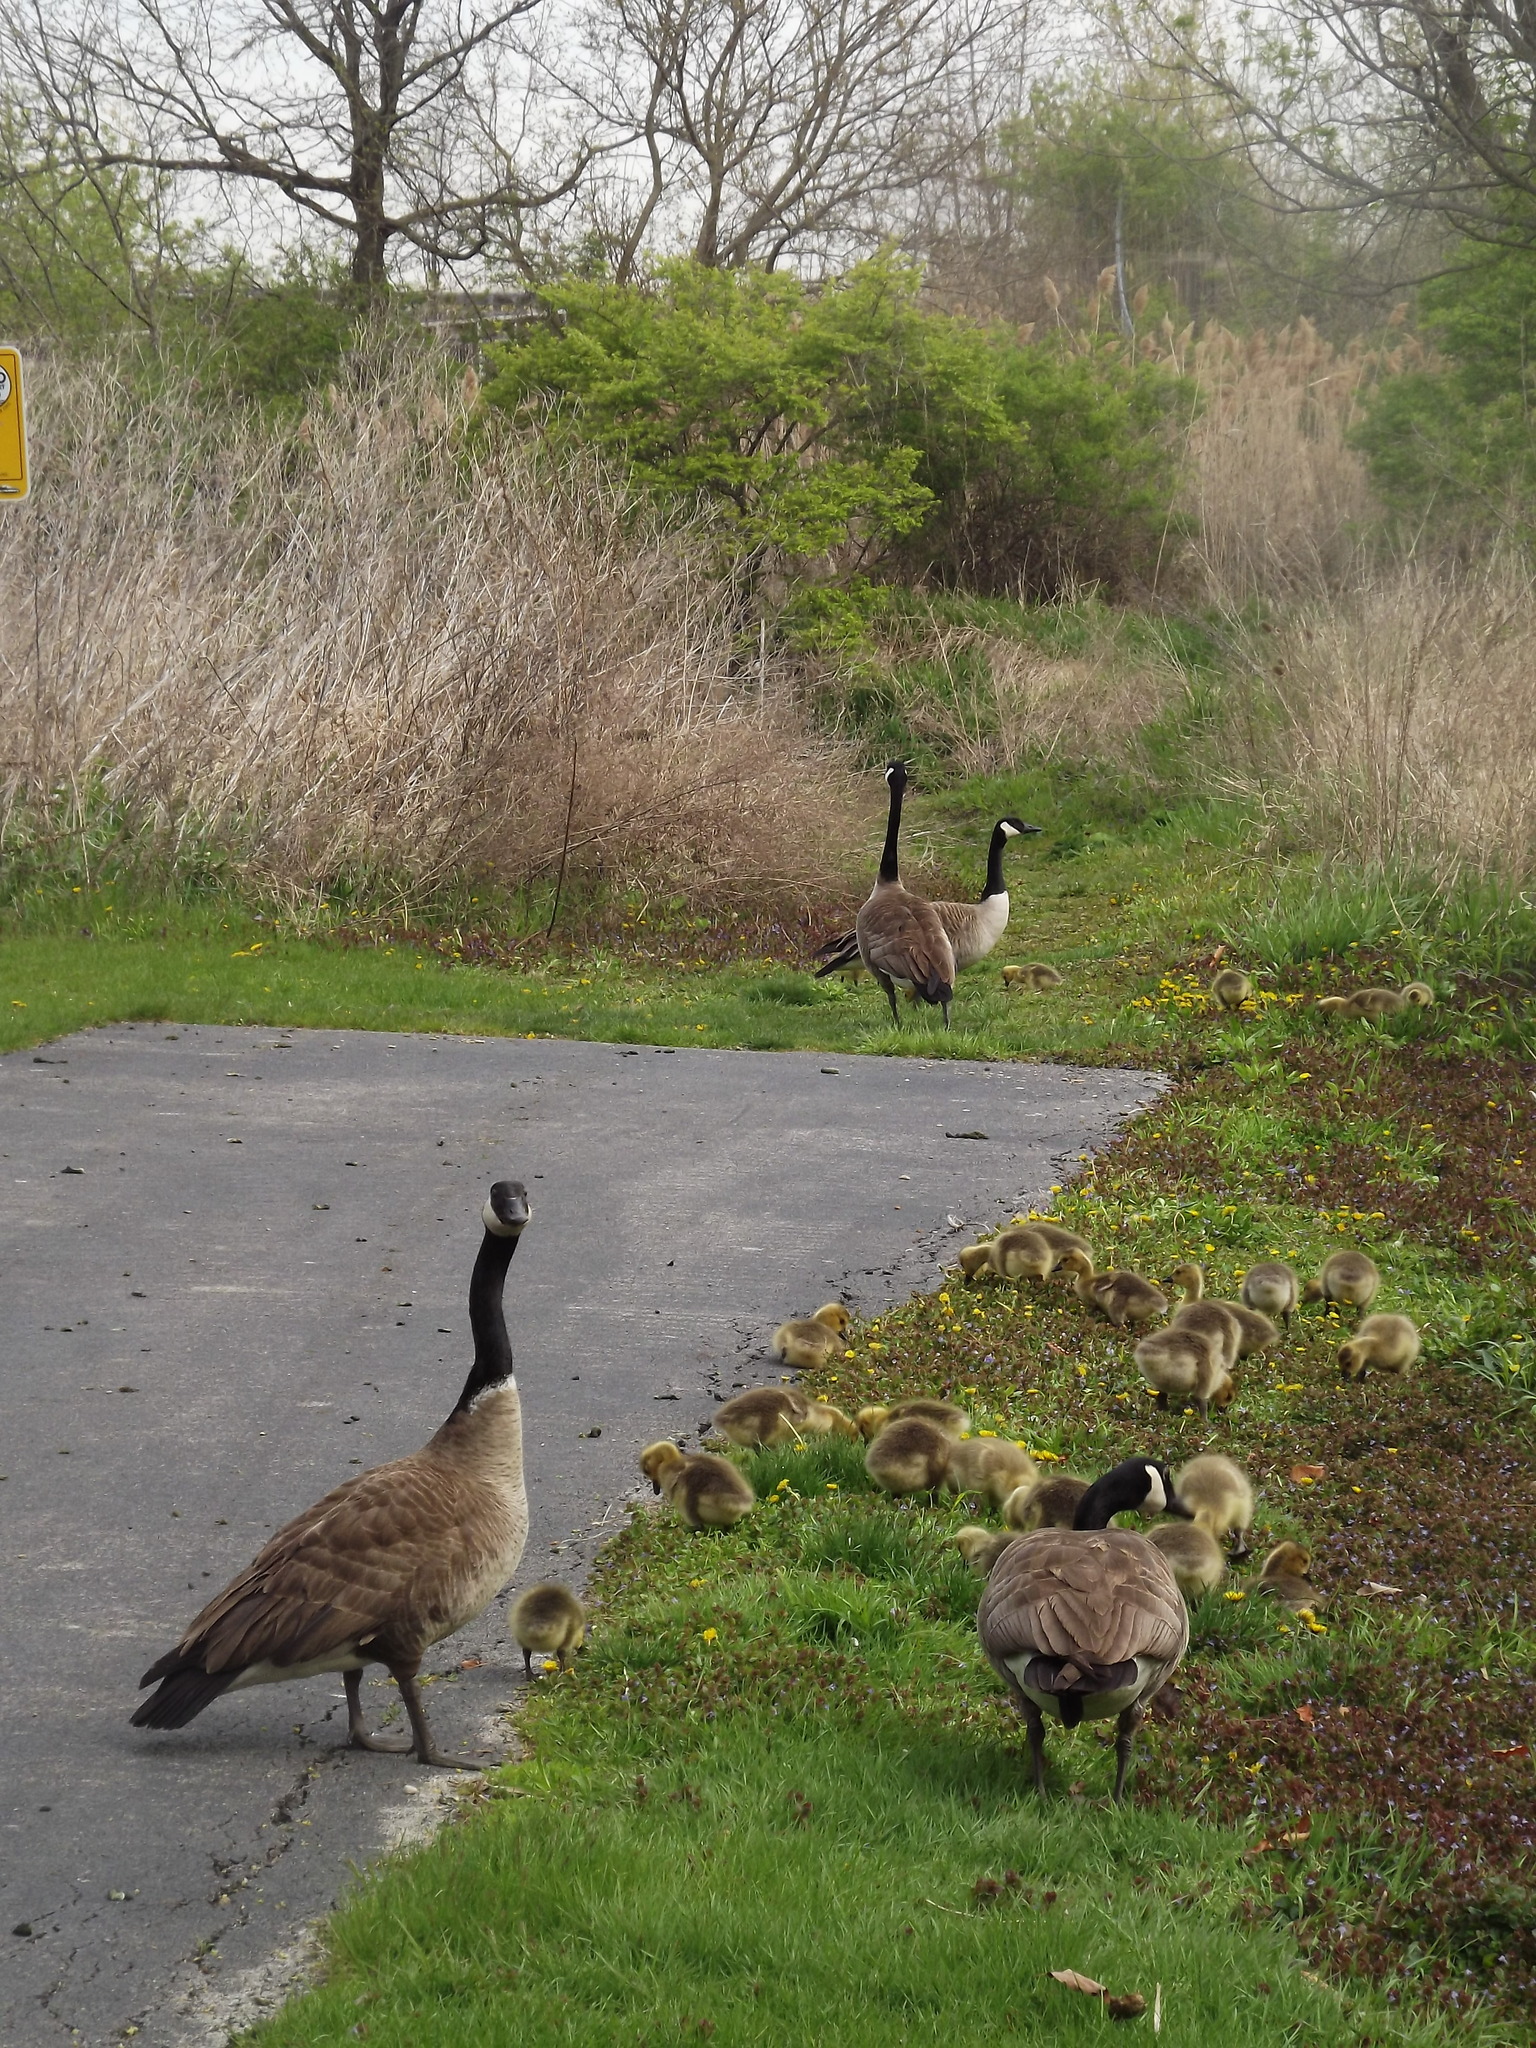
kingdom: Animalia
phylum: Chordata
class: Aves
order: Anseriformes
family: Anatidae
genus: Branta
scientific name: Branta canadensis
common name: Canada goose
